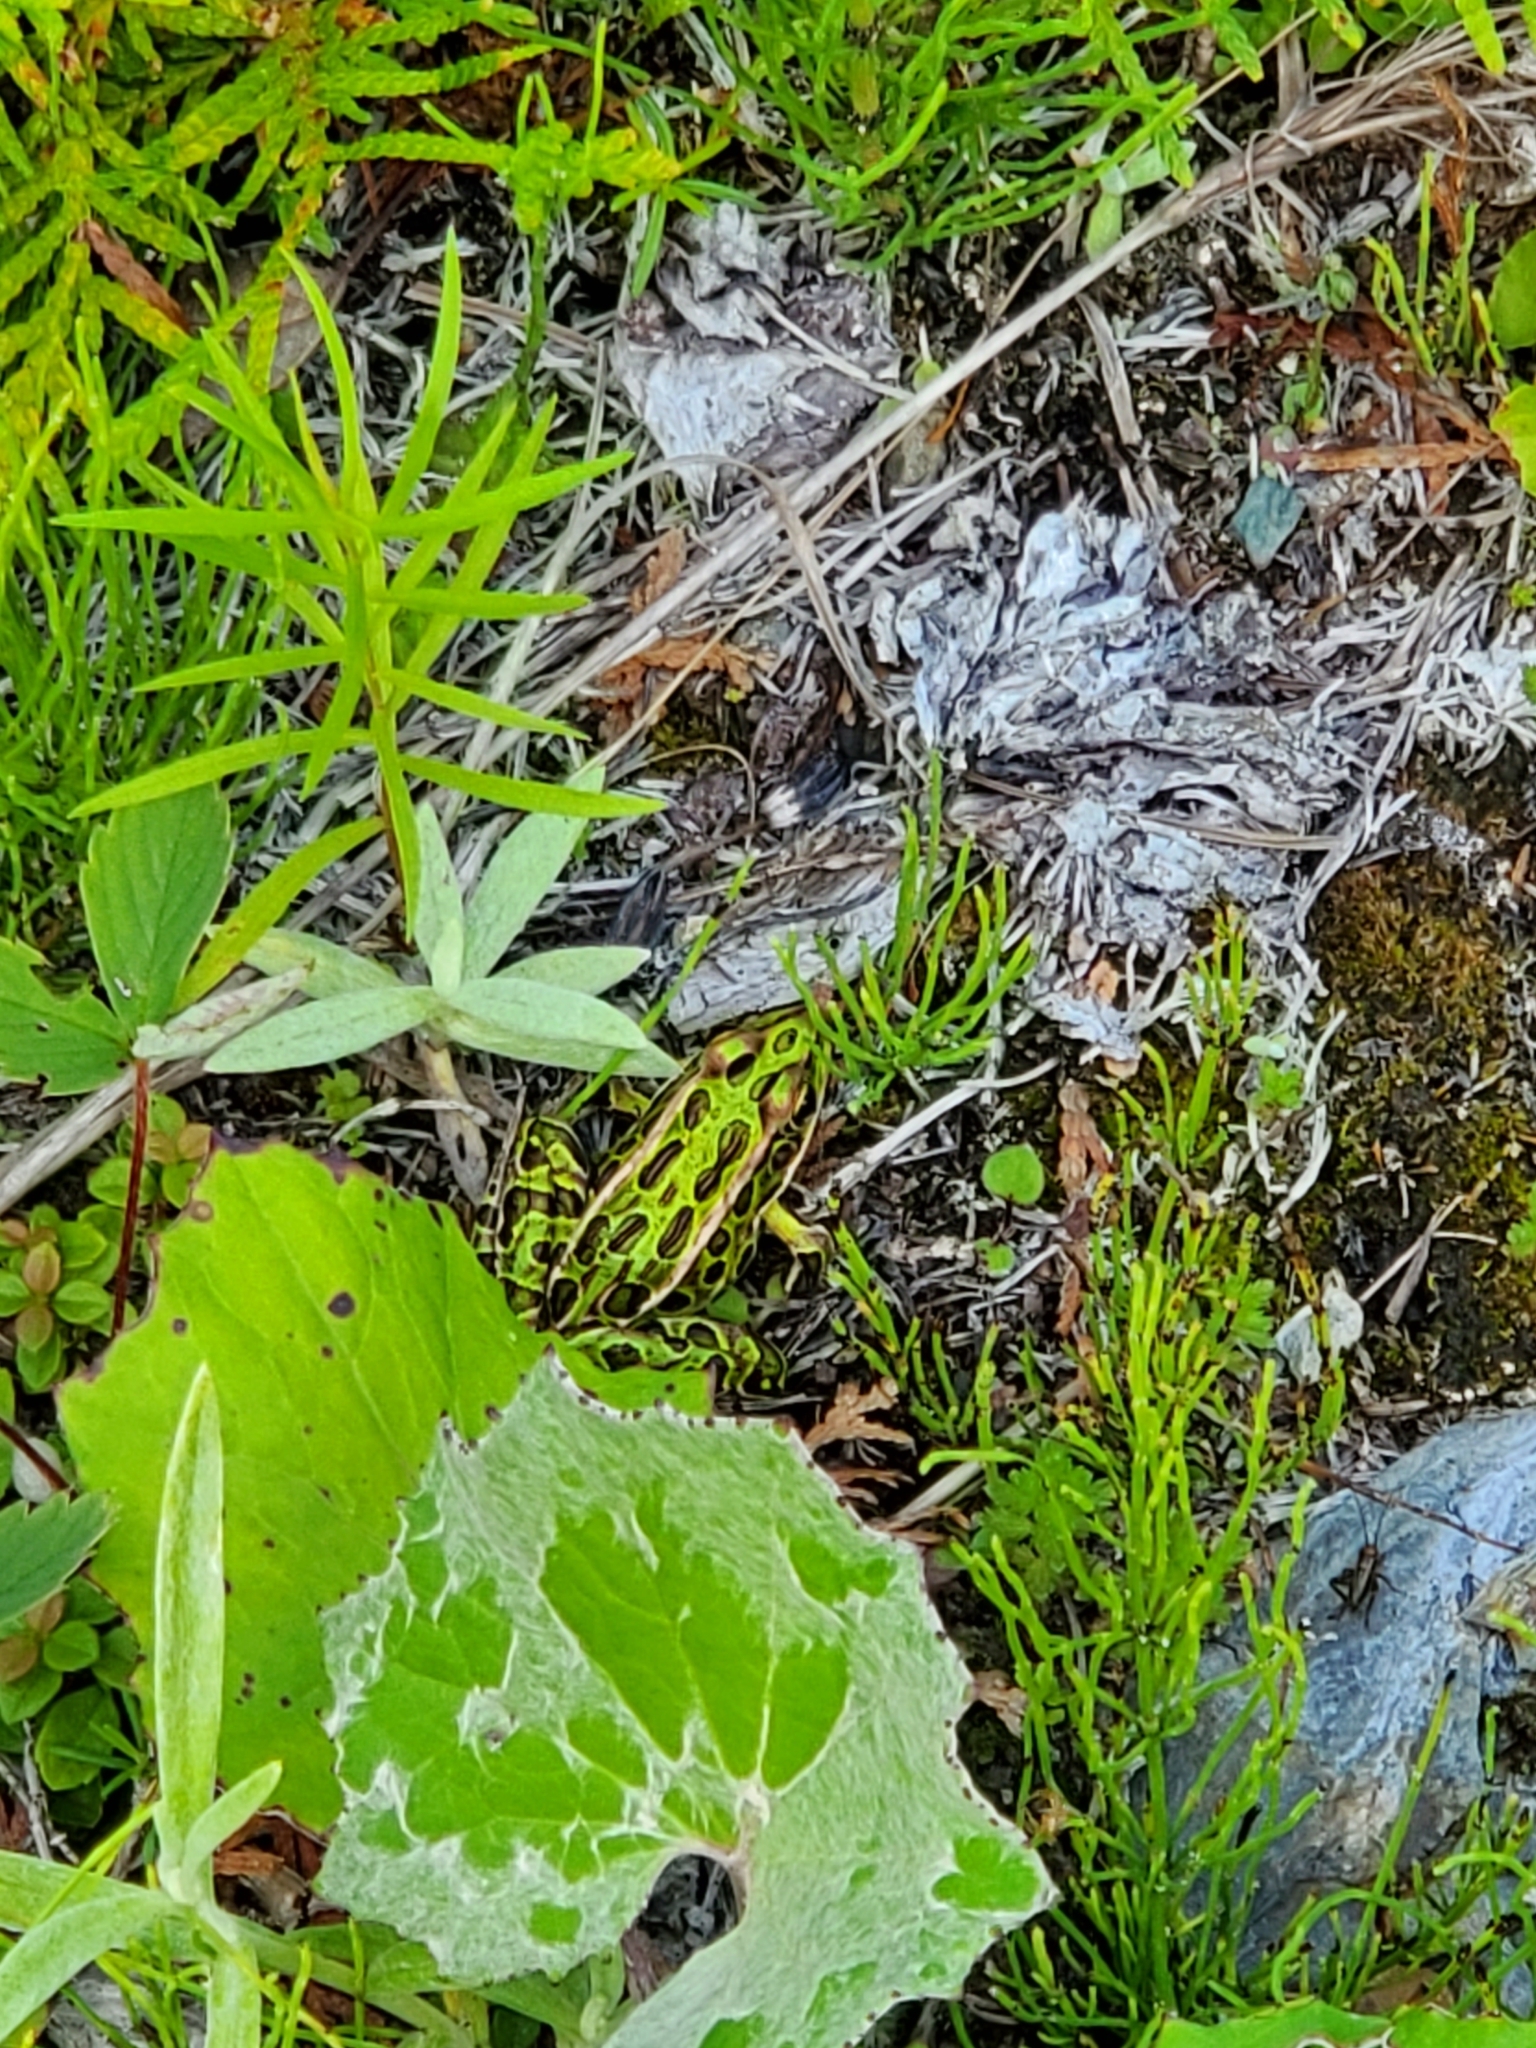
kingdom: Animalia
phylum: Chordata
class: Amphibia
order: Anura
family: Ranidae
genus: Lithobates
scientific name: Lithobates pipiens
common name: Northern leopard frog
